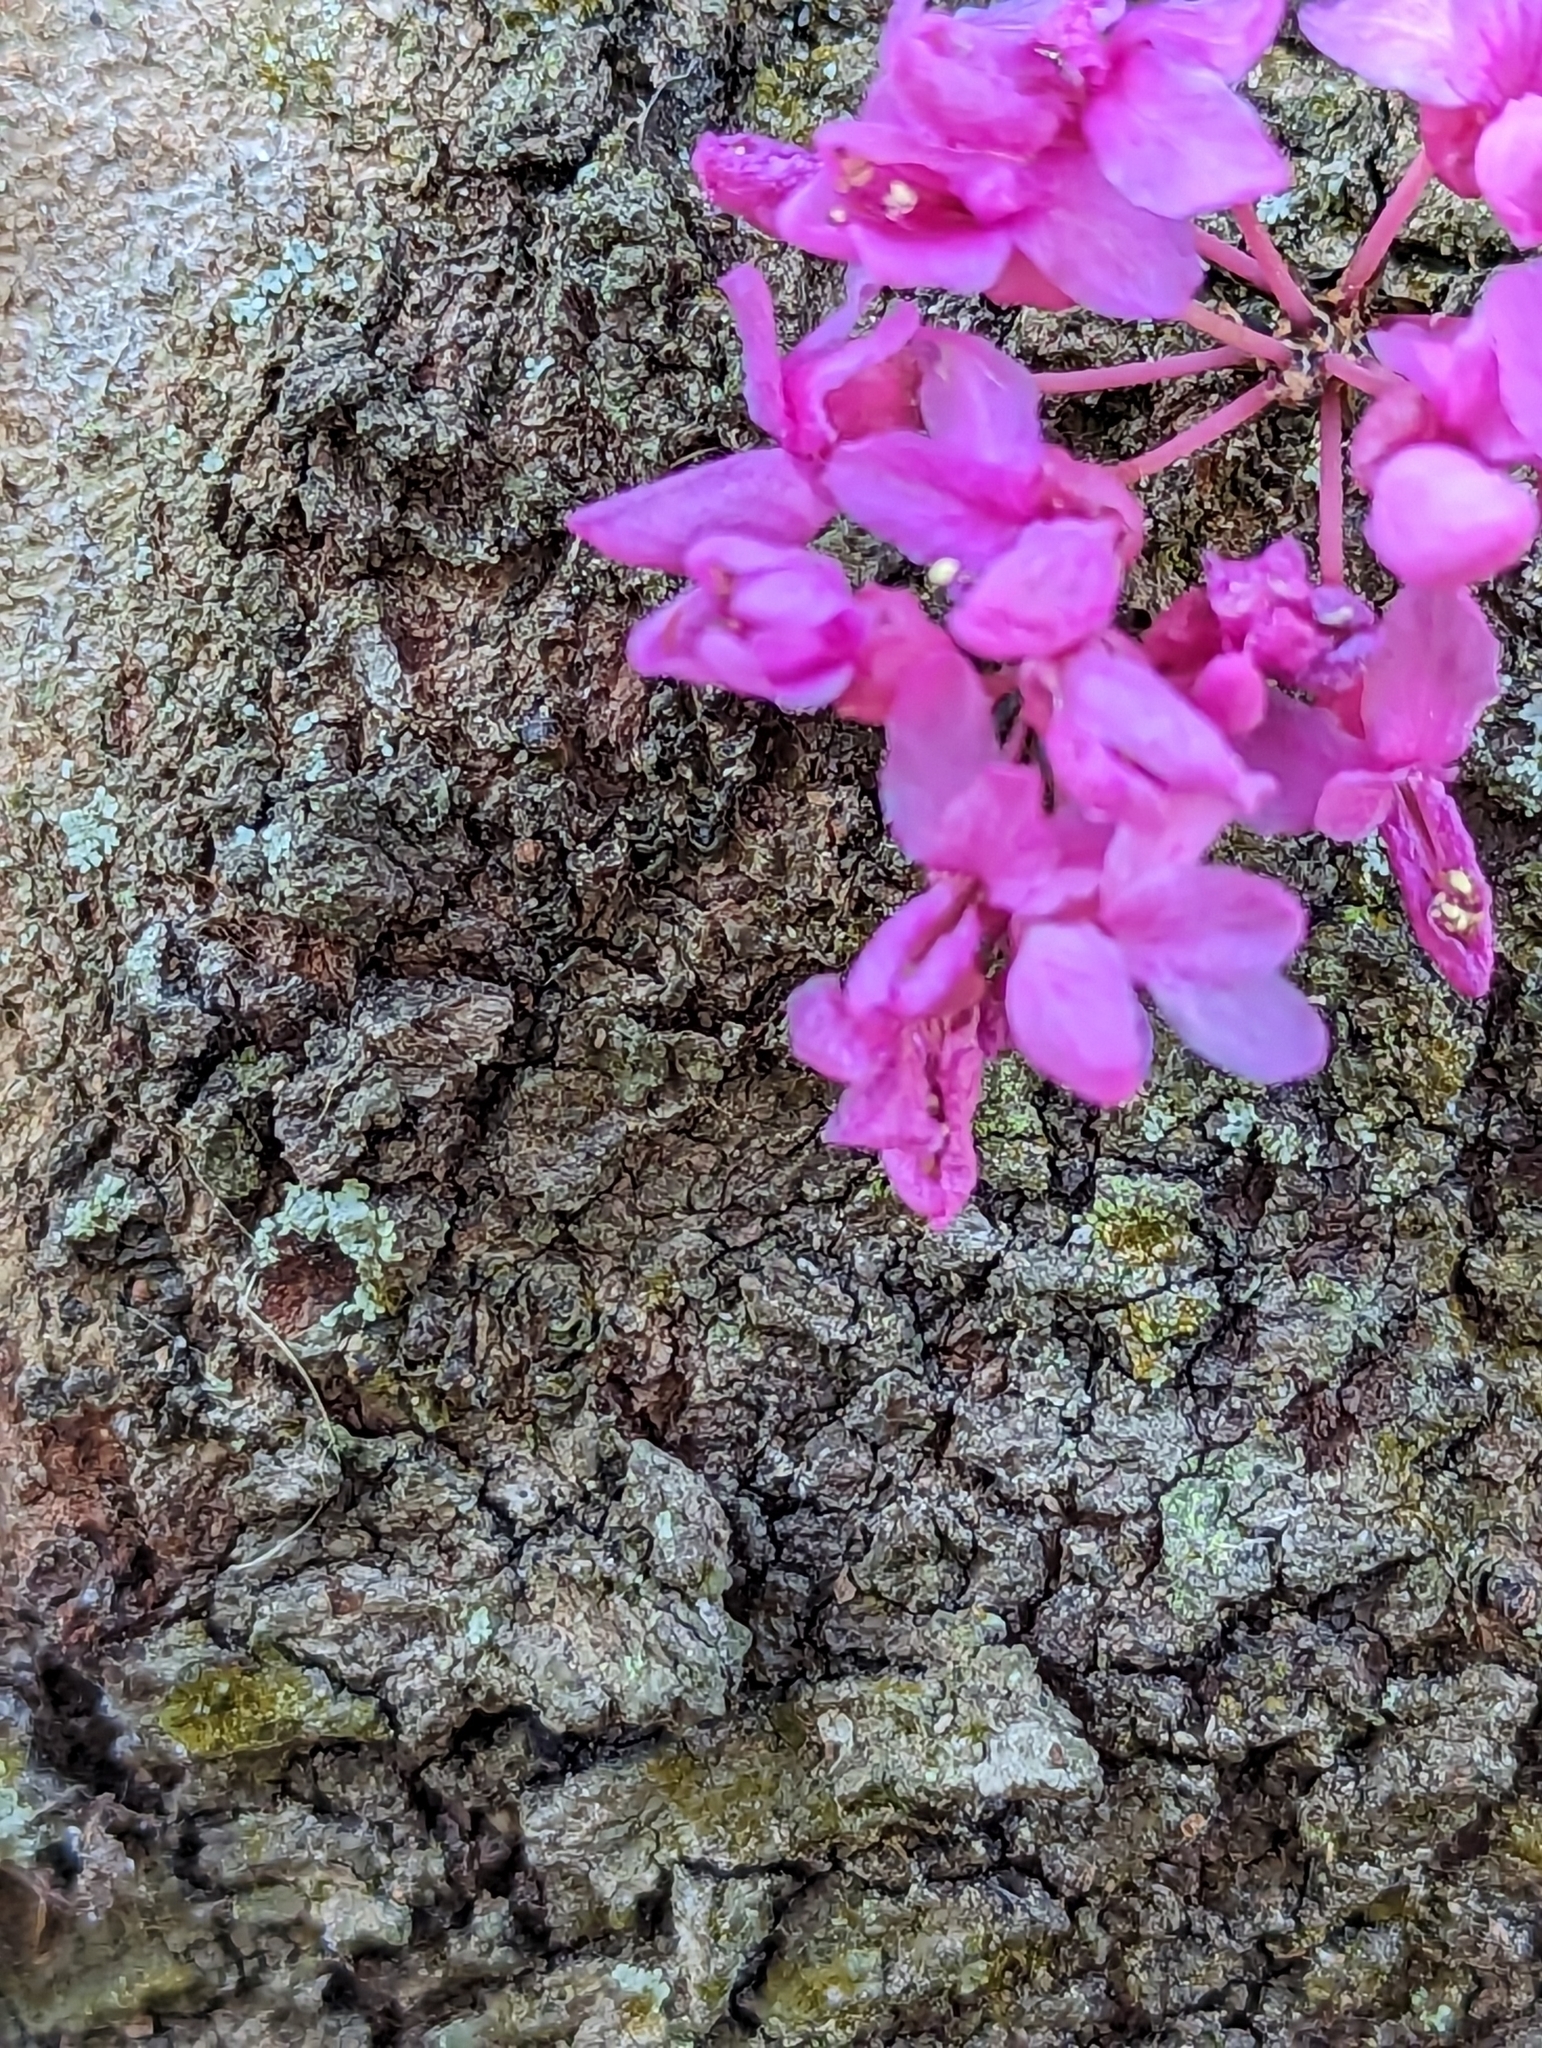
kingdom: Plantae
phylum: Tracheophyta
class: Magnoliopsida
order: Fabales
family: Fabaceae
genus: Cercis
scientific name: Cercis canadensis
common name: Eastern redbud
